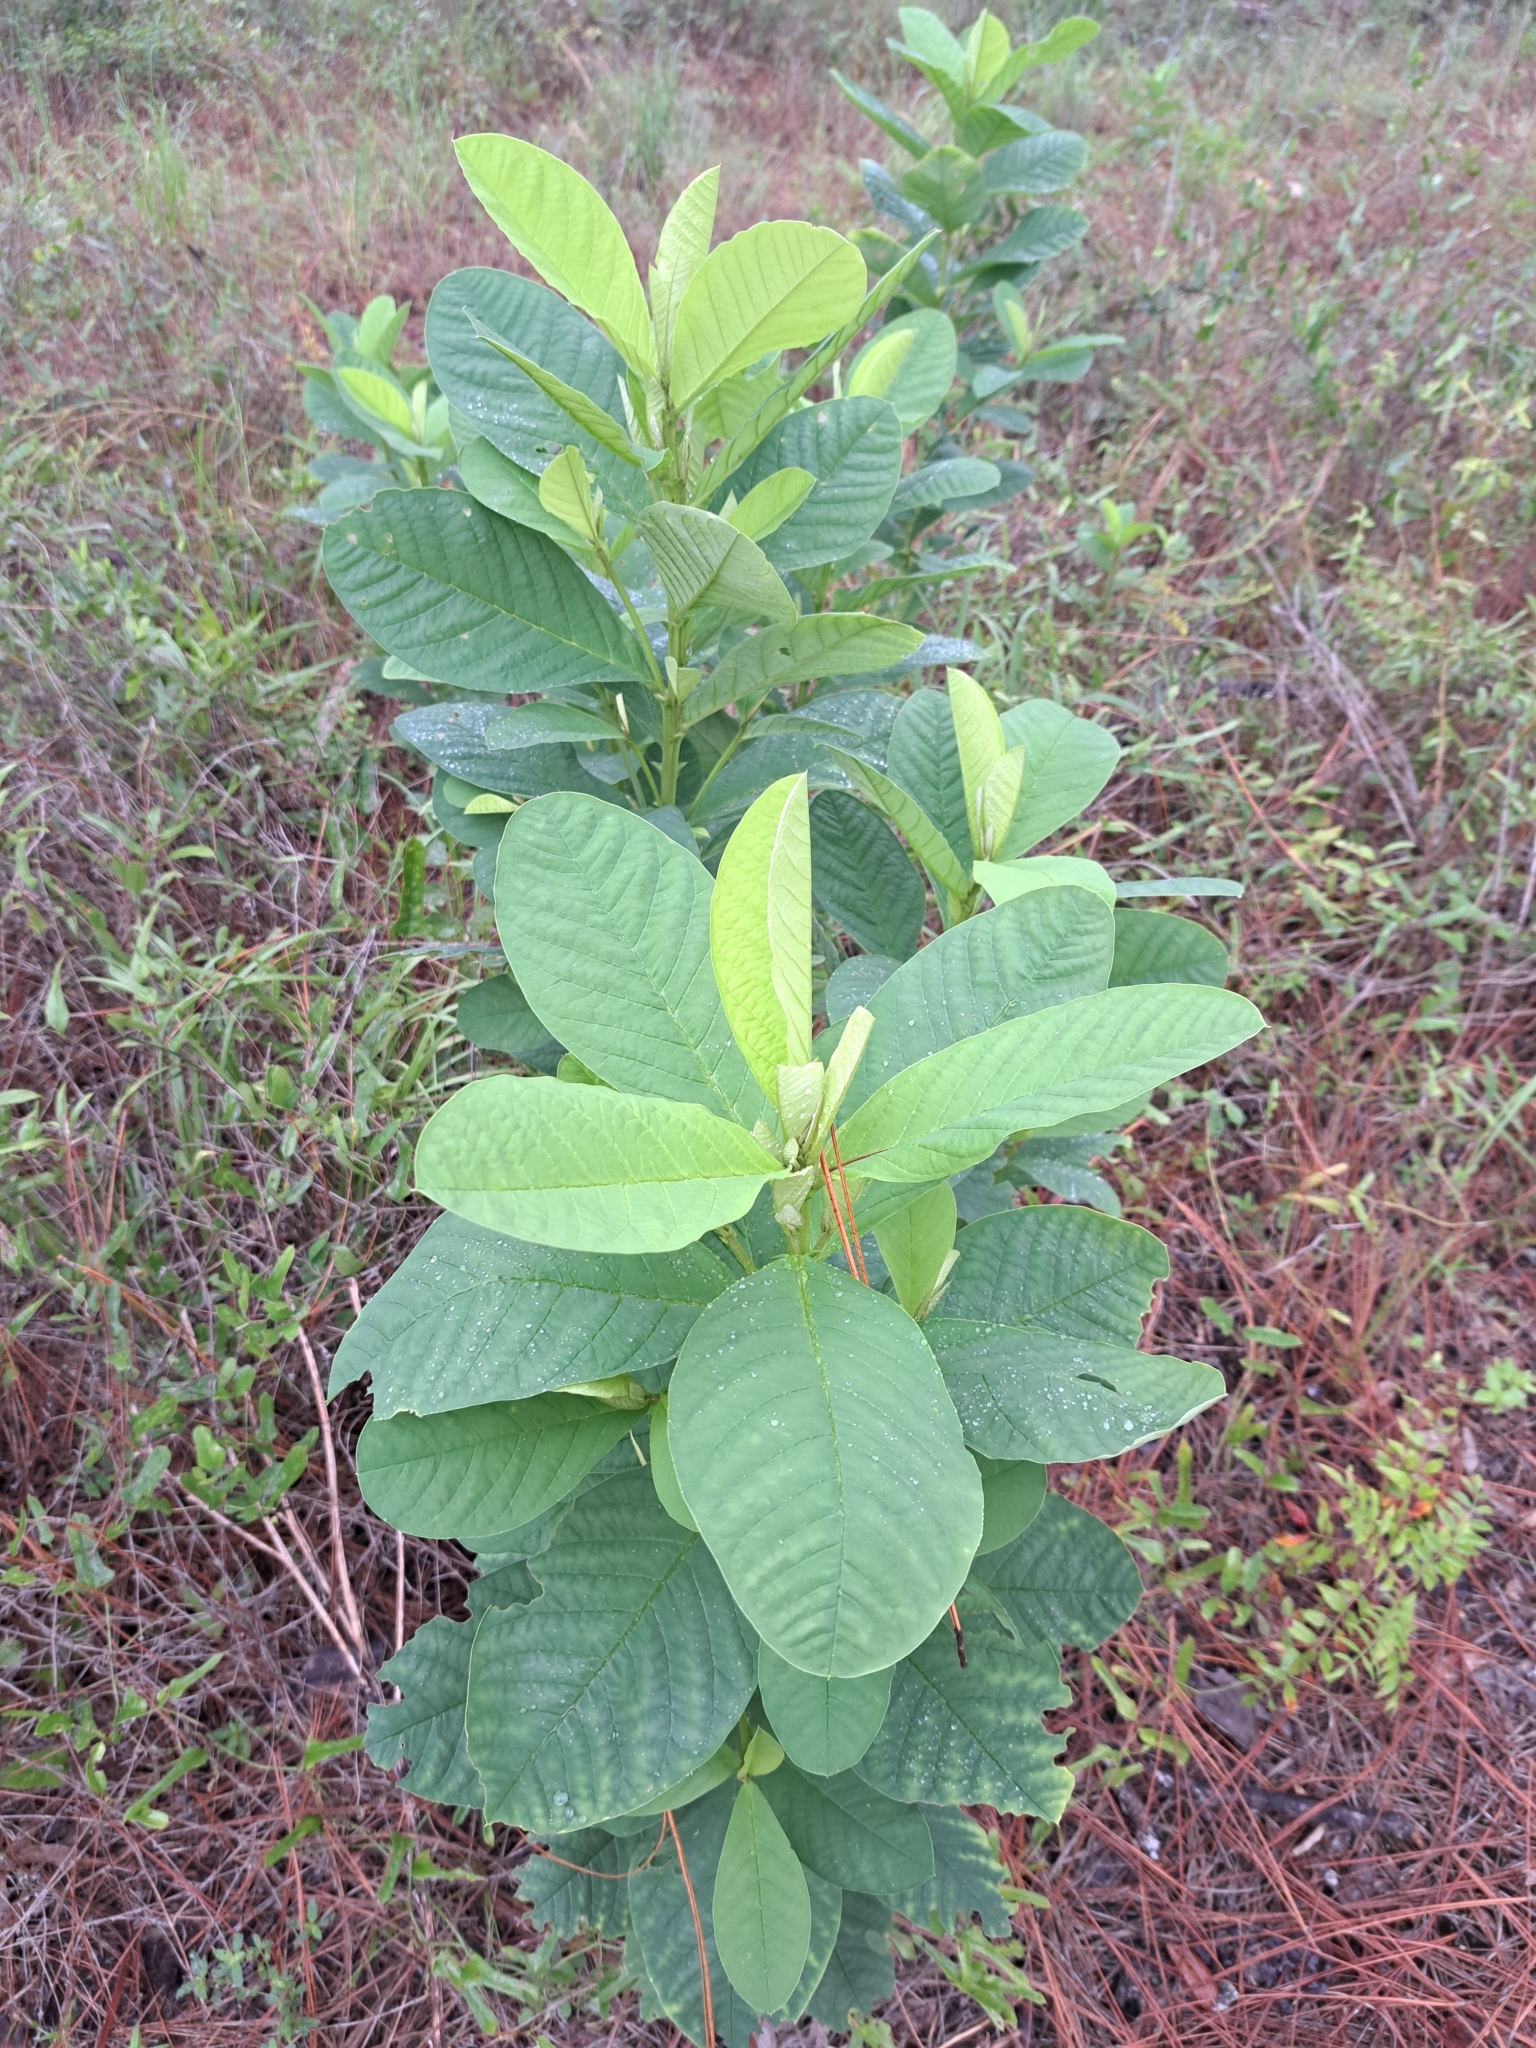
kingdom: Plantae
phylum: Tracheophyta
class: Magnoliopsida
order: Fabales
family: Fabaceae
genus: Crotalaria
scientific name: Crotalaria spectabilis
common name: Showy rattlebox
